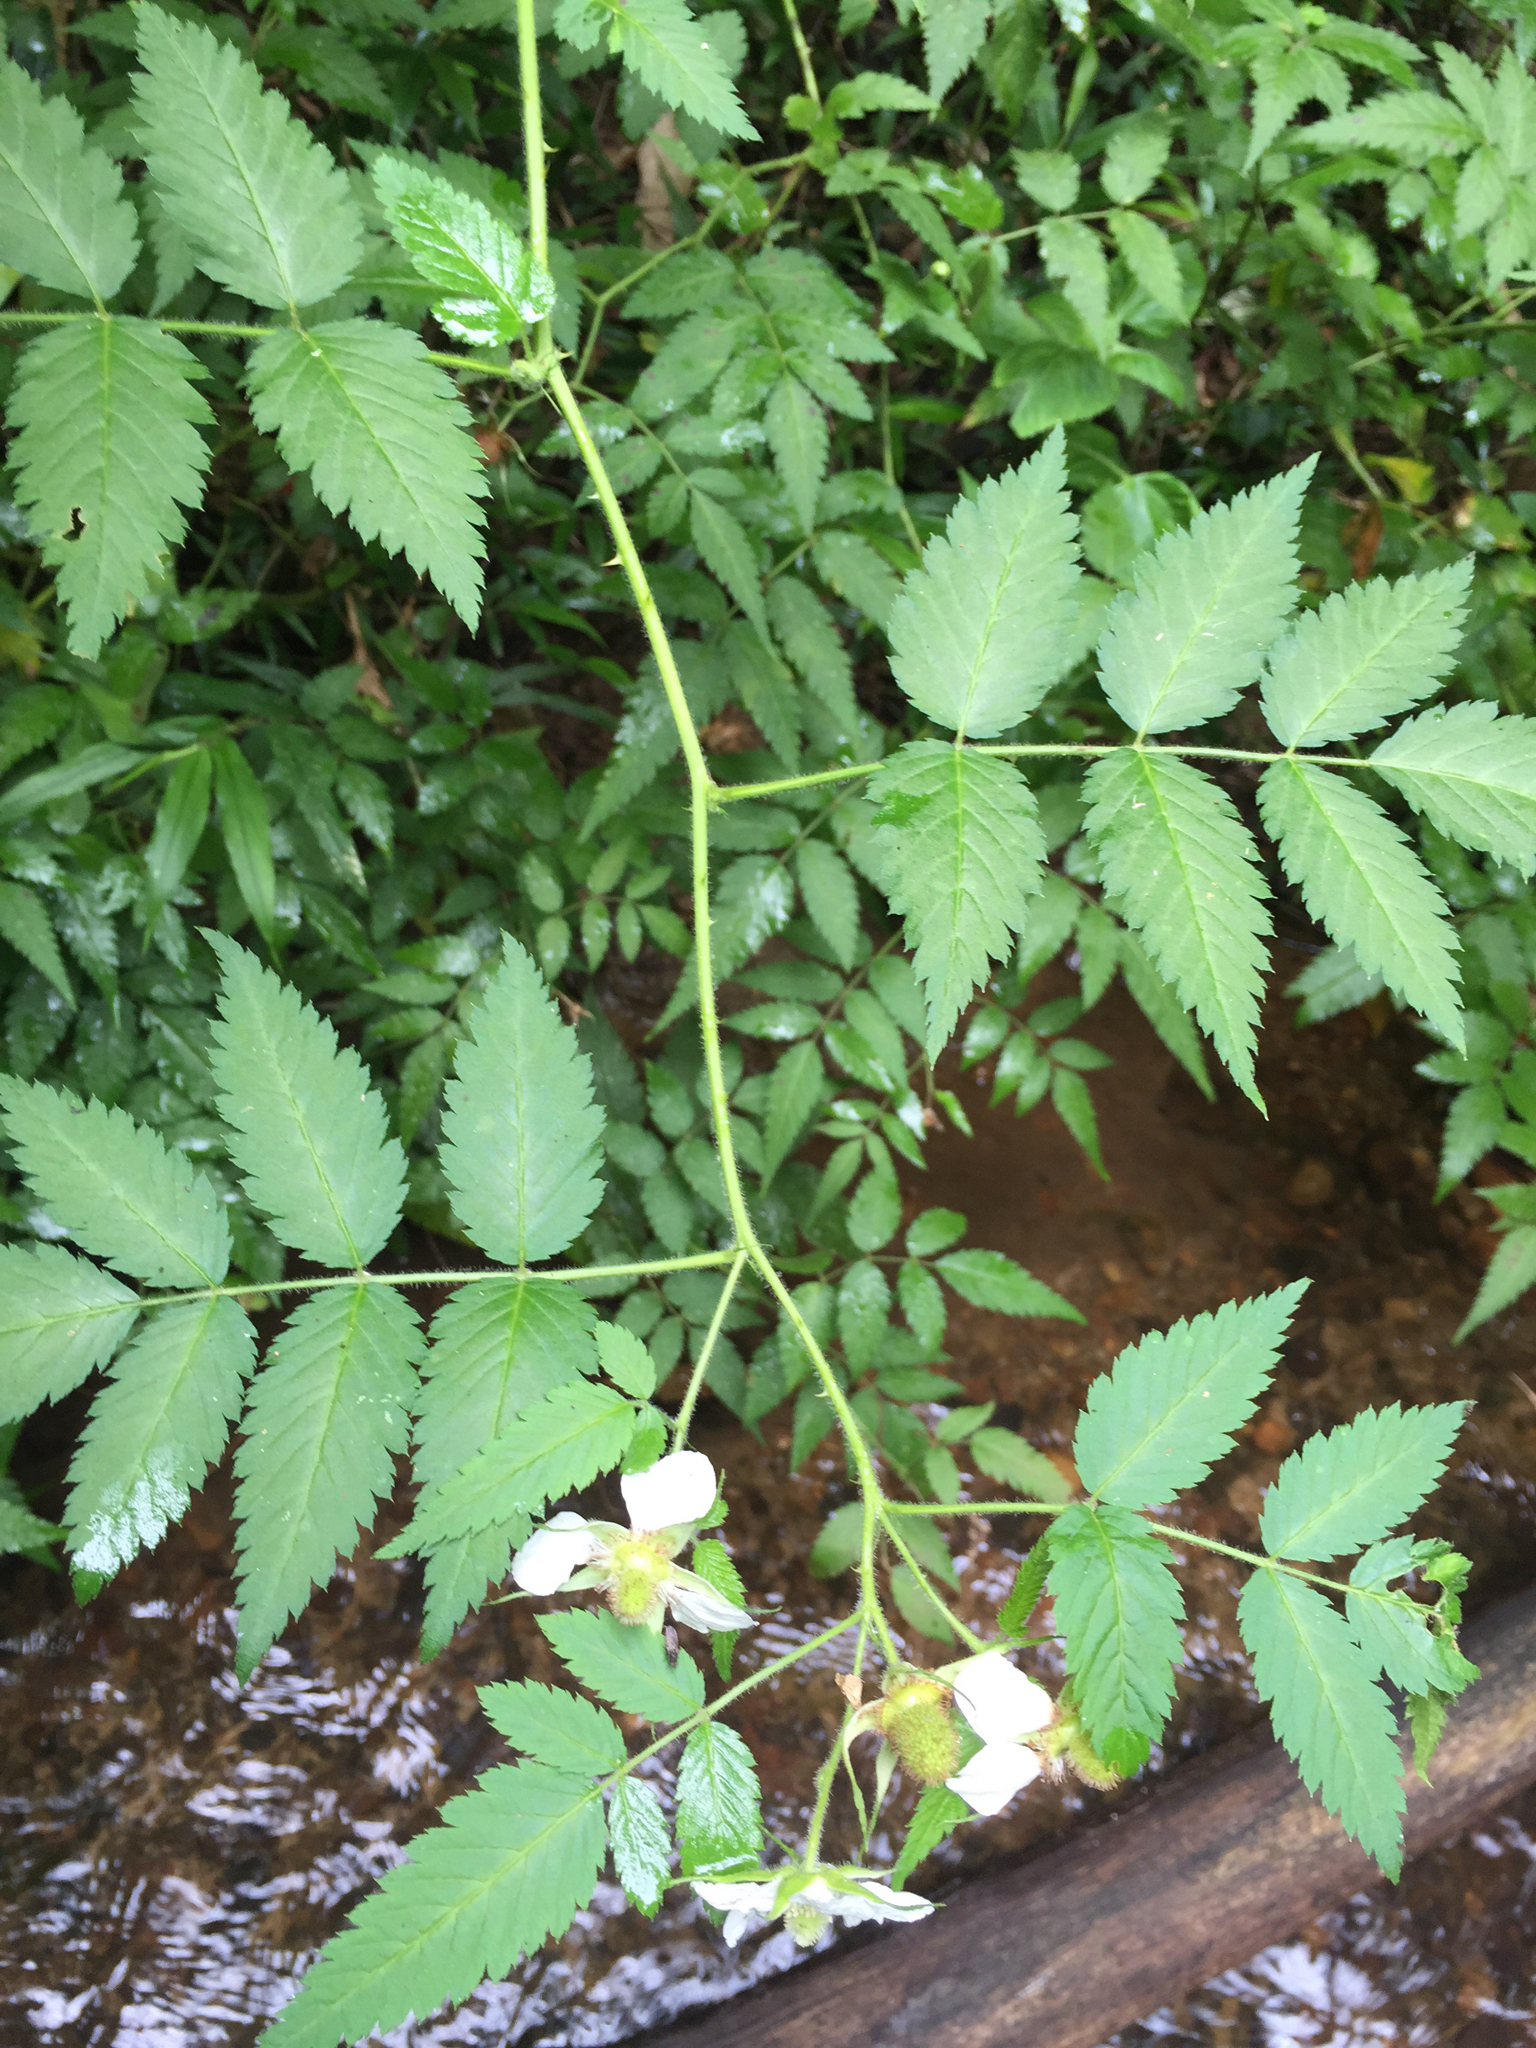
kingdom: Plantae
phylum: Tracheophyta
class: Magnoliopsida
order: Rosales
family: Rosaceae
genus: Rubus
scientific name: Rubus rosifolius
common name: Roseleaf raspberry
